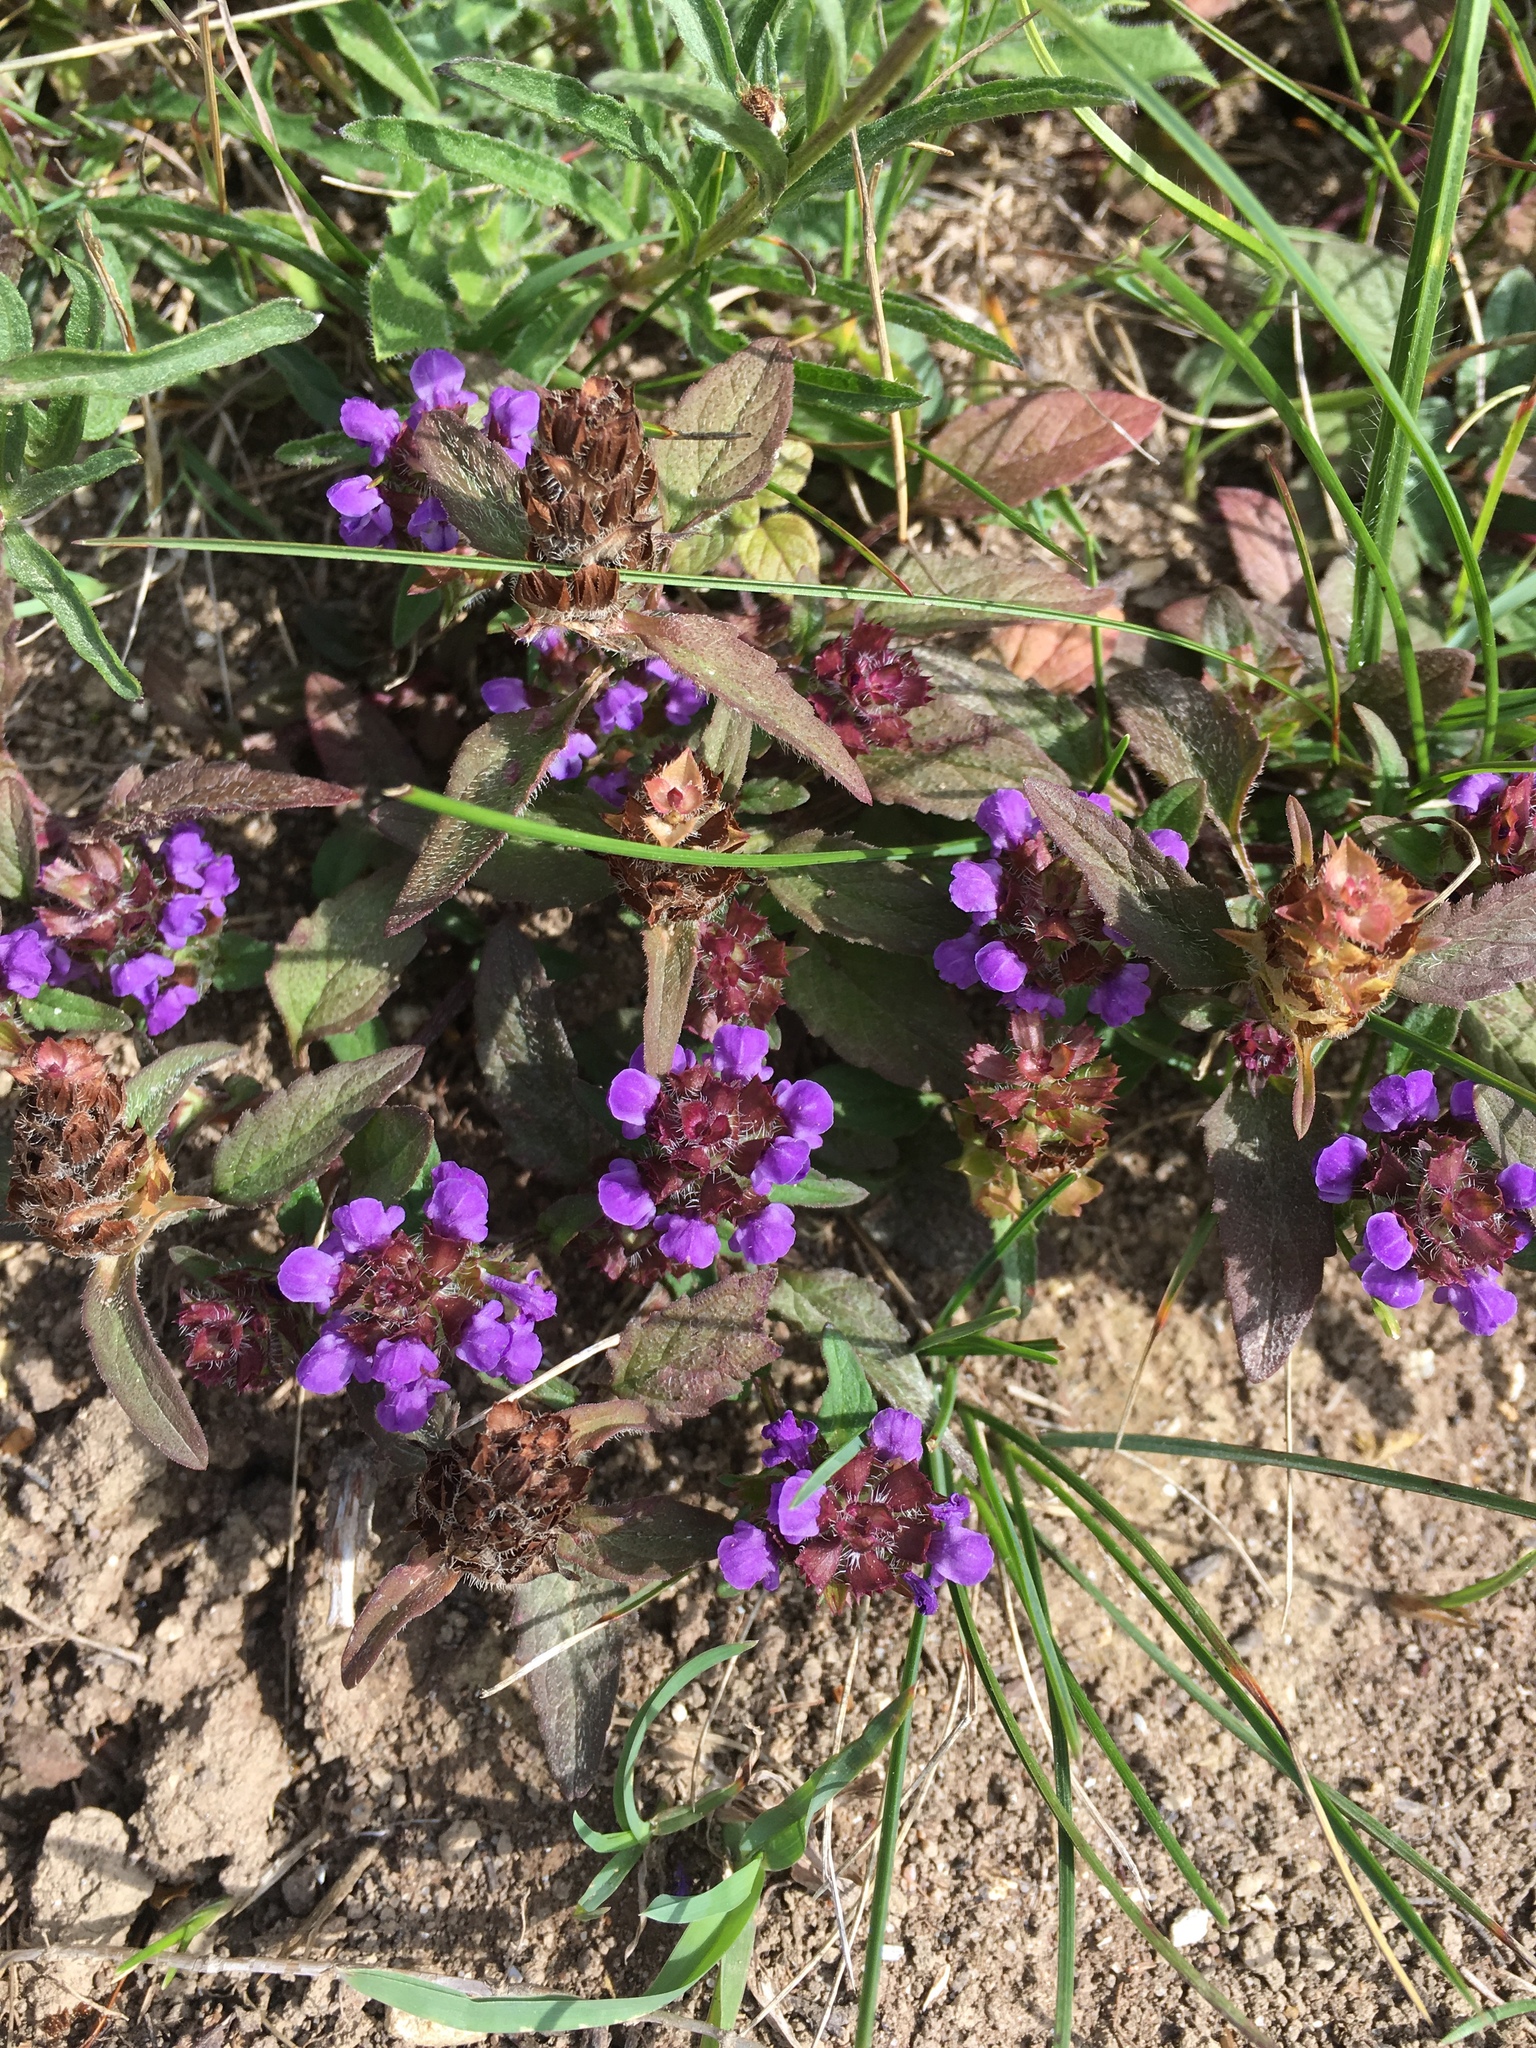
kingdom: Plantae
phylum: Tracheophyta
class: Magnoliopsida
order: Lamiales
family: Lamiaceae
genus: Prunella
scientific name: Prunella vulgaris
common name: Heal-all
